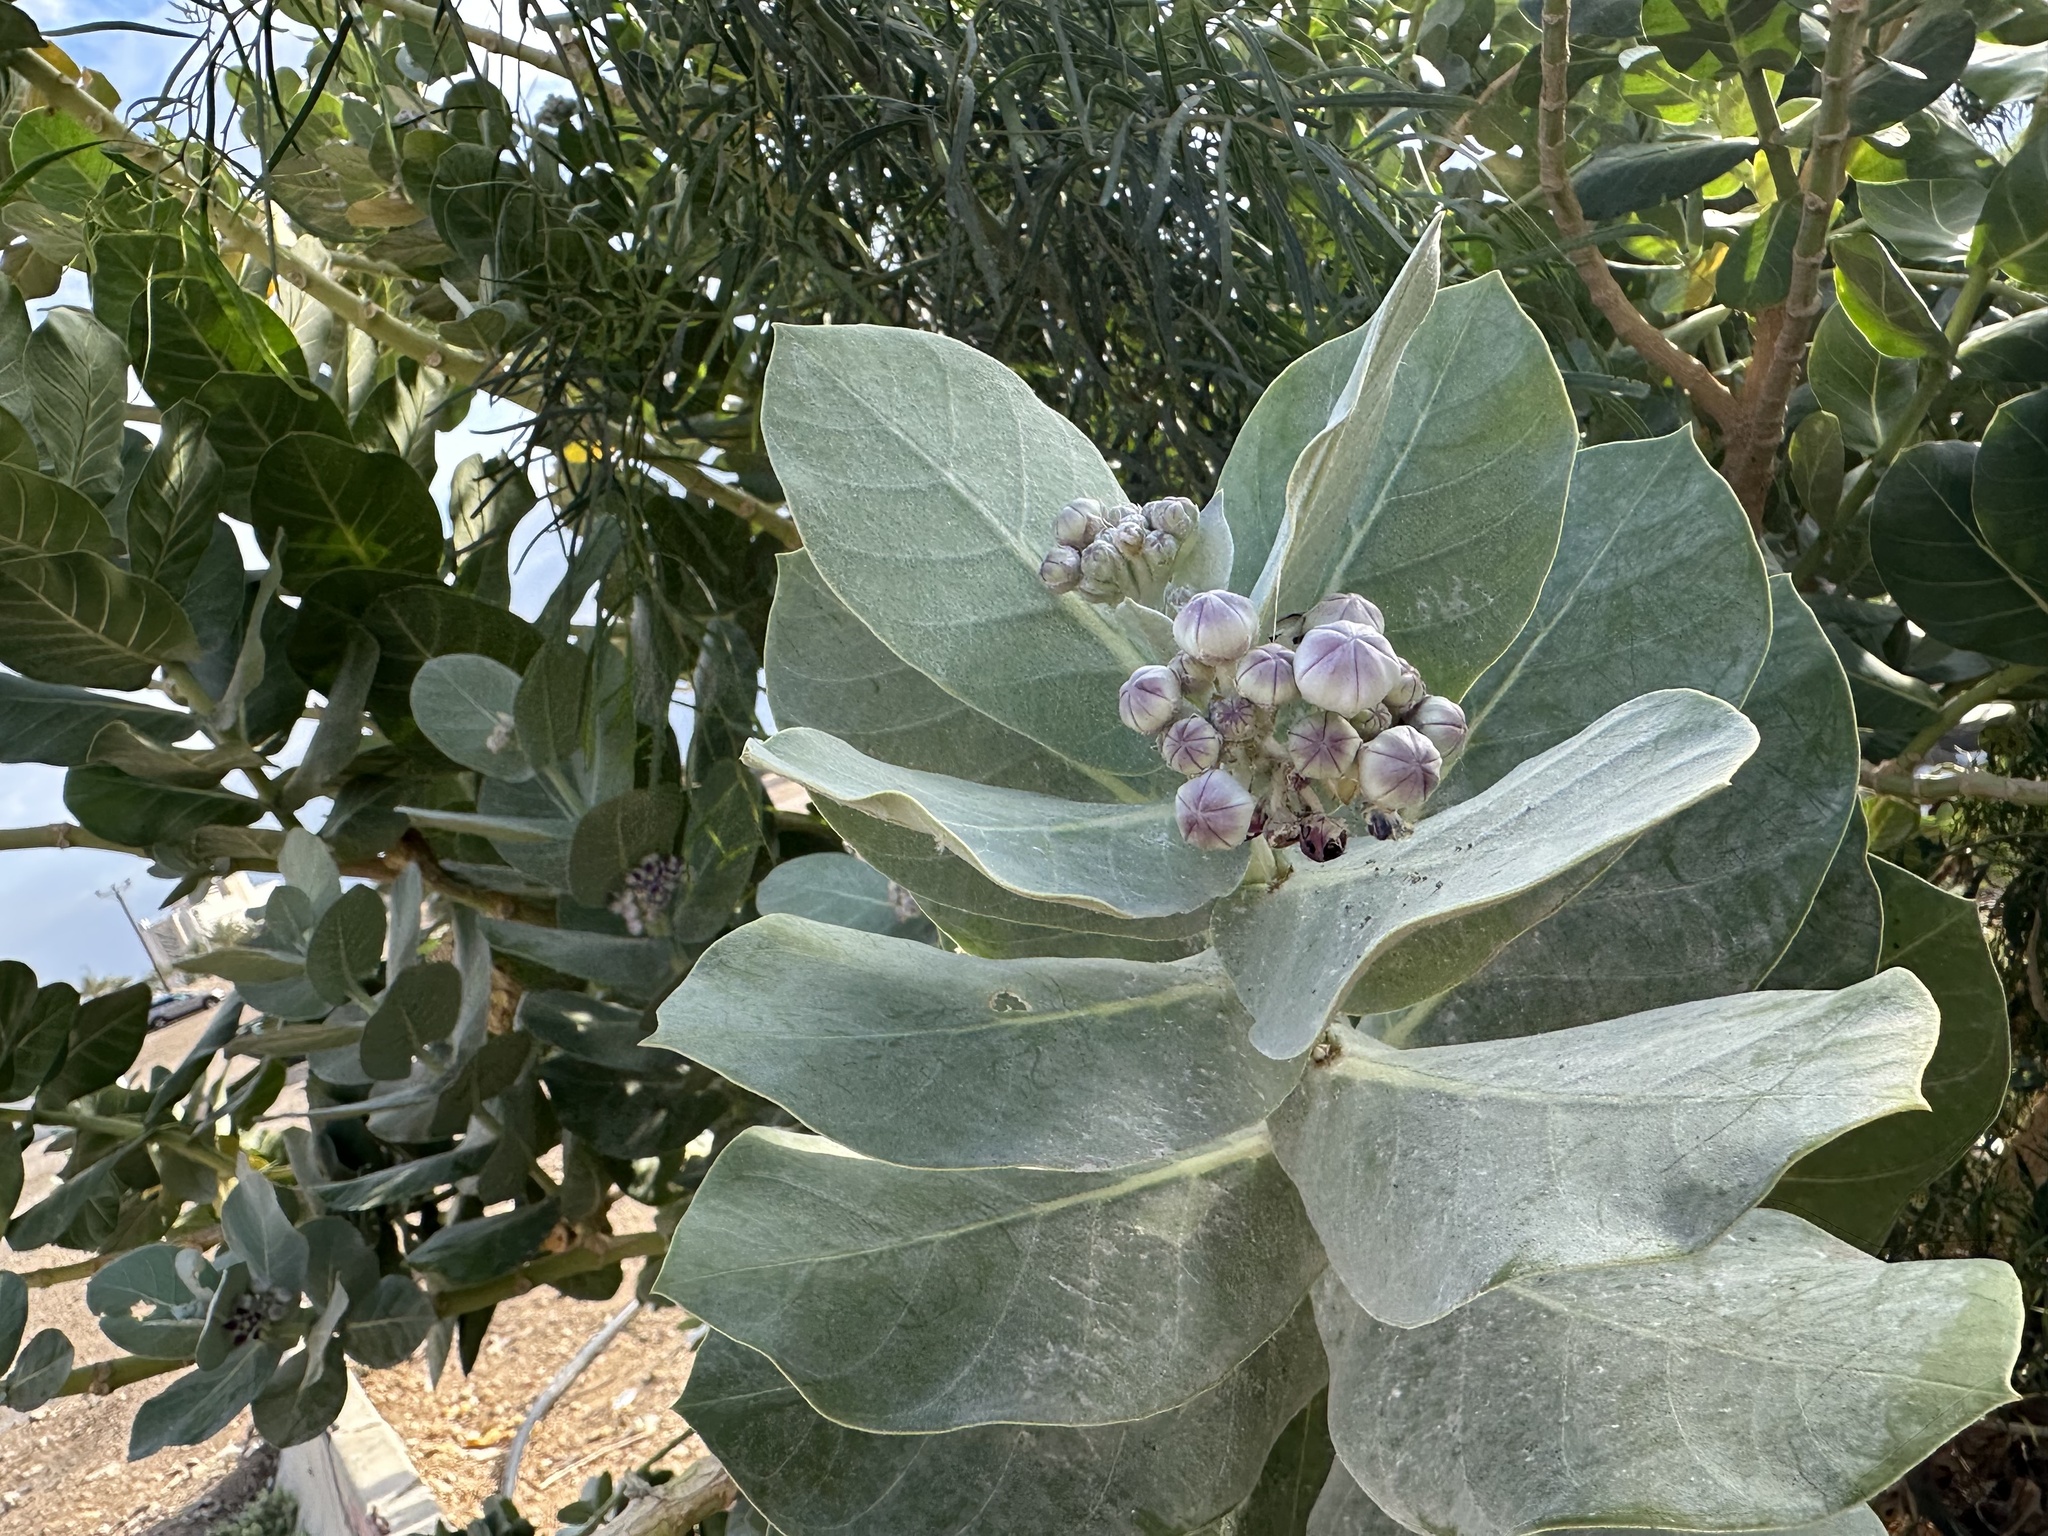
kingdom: Plantae
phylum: Tracheophyta
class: Magnoliopsida
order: Gentianales
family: Apocynaceae
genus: Calotropis
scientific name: Calotropis procera
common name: Roostertree
